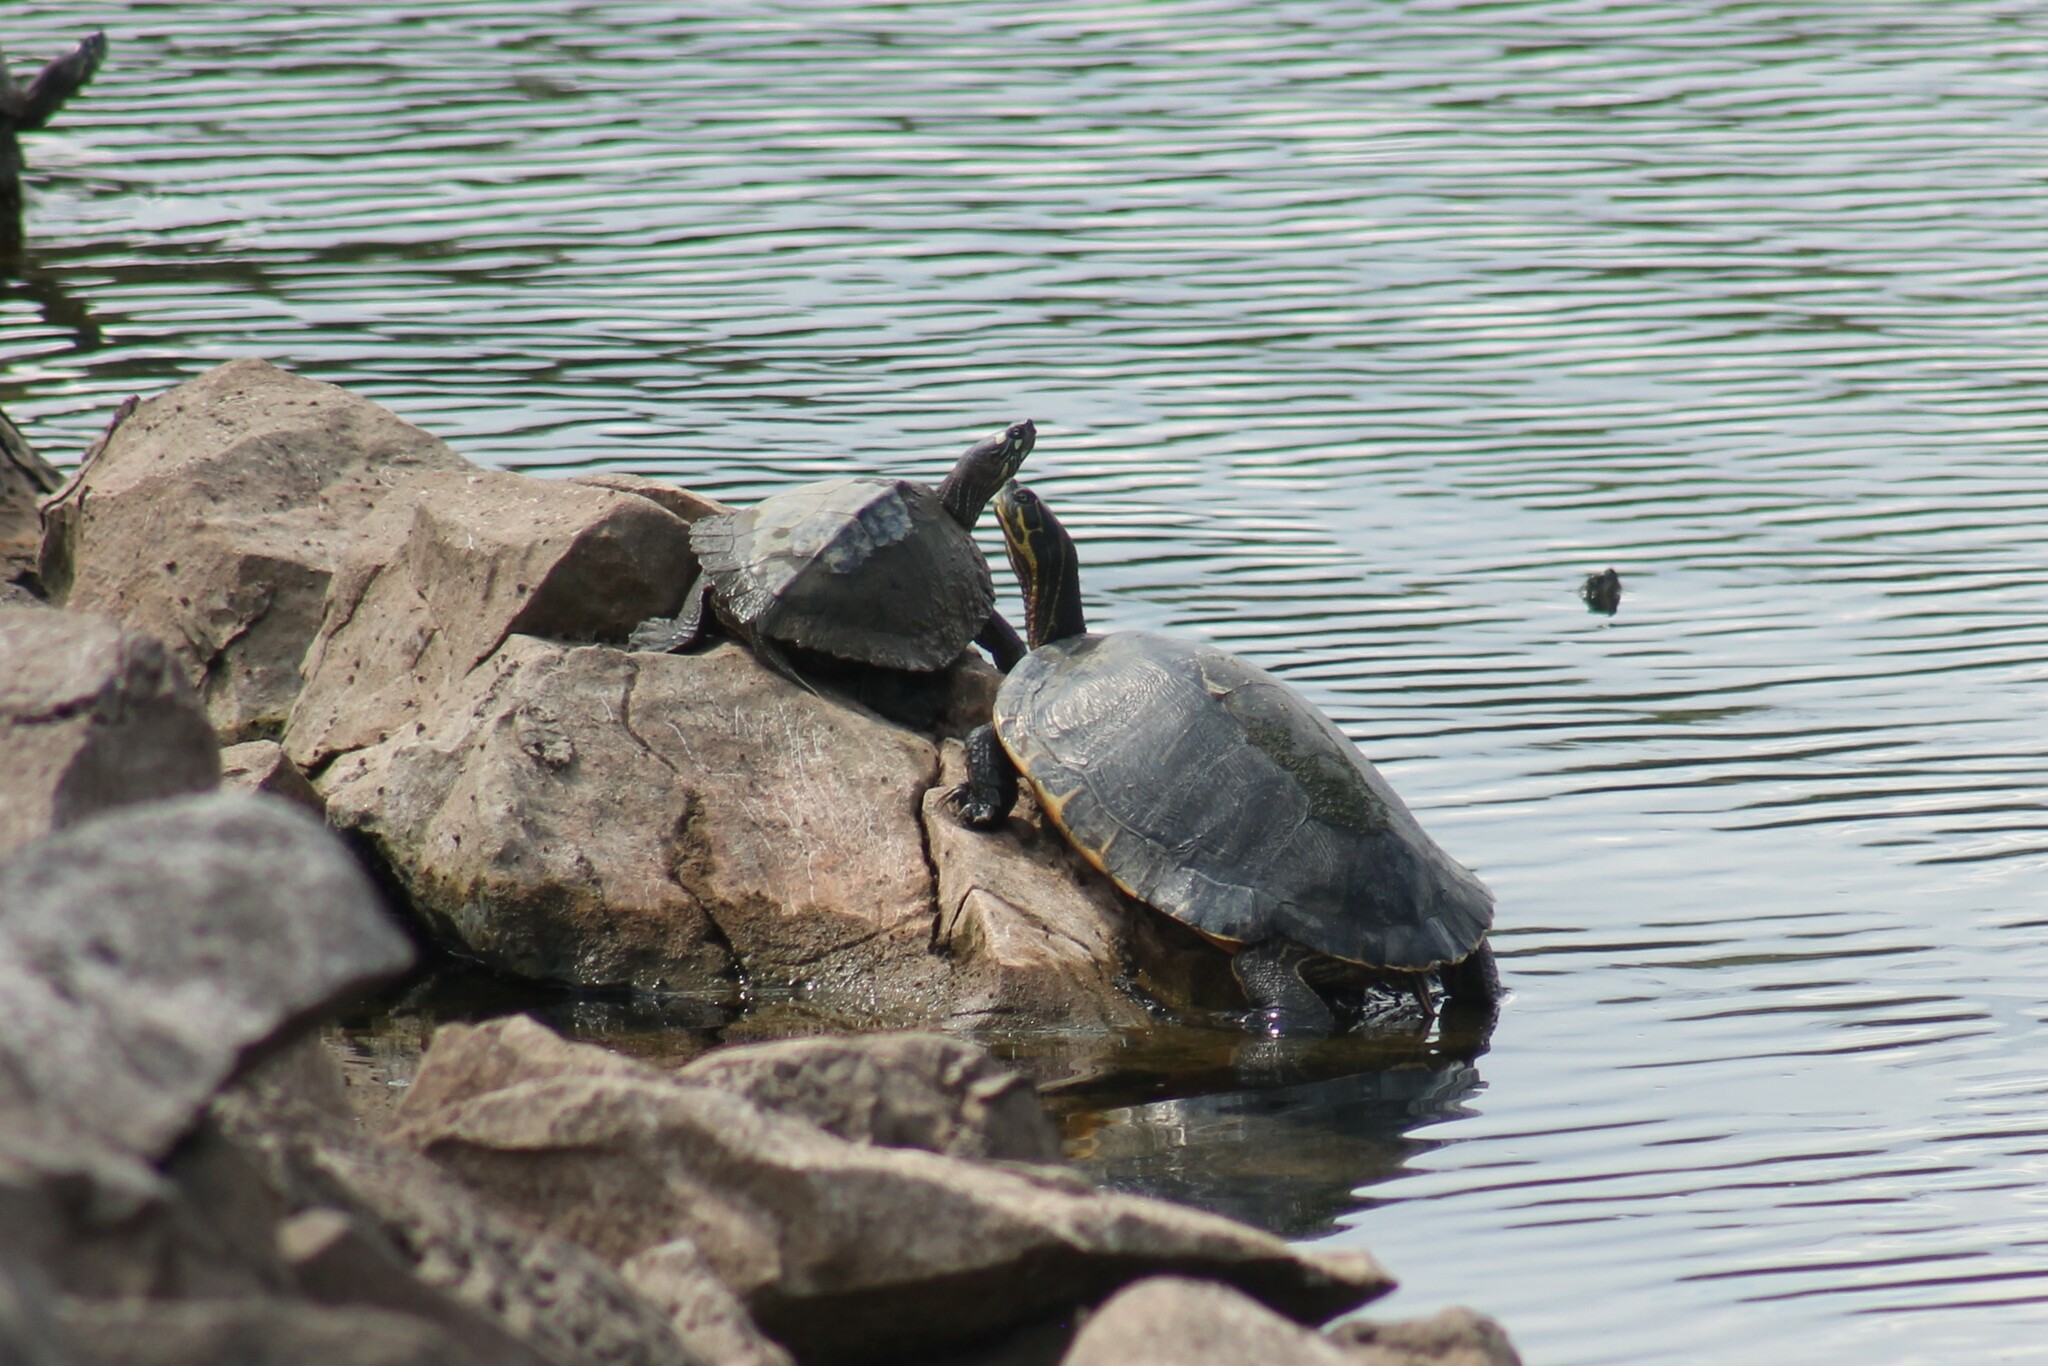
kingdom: Animalia
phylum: Chordata
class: Testudines
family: Emydidae
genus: Pseudemys
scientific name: Pseudemys concinna
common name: Eastern river cooter
